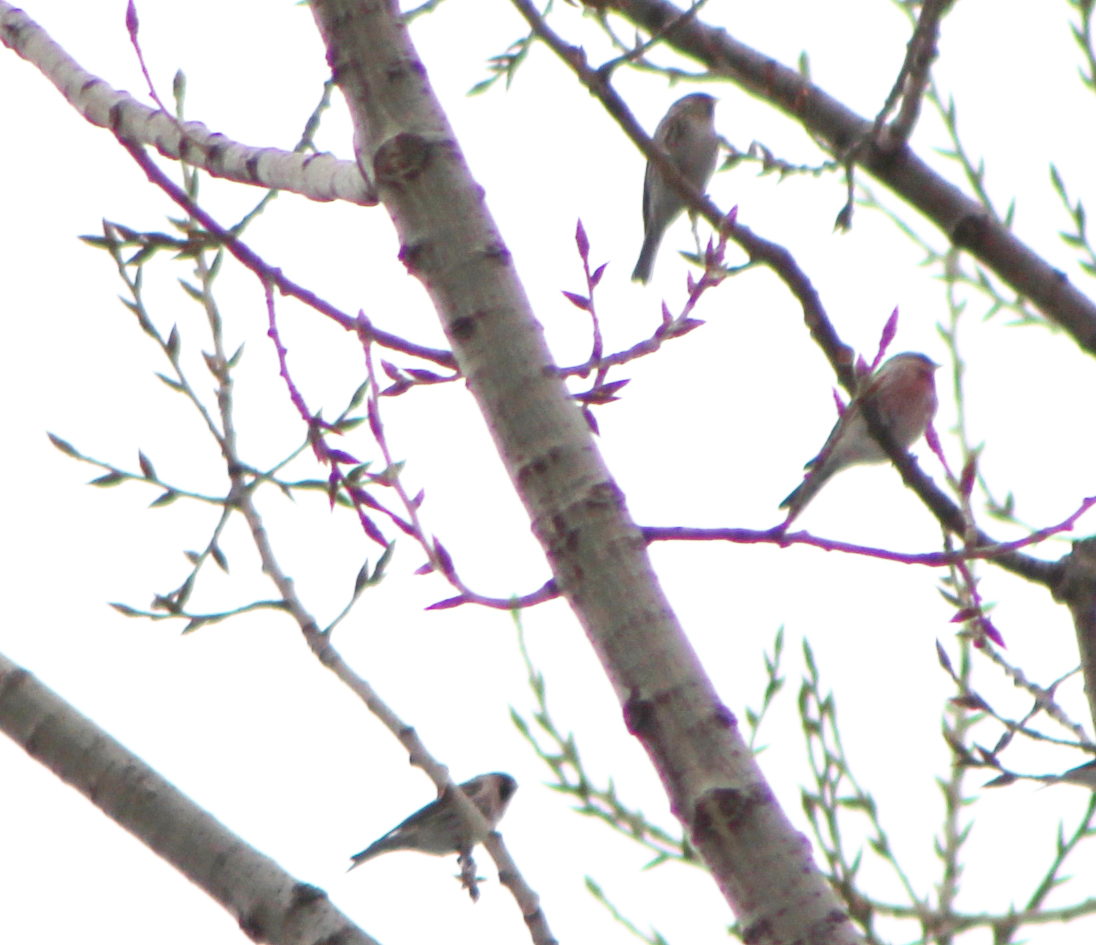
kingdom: Animalia
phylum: Chordata
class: Aves
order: Passeriformes
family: Fringillidae
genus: Acanthis
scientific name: Acanthis flammea
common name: Common redpoll
